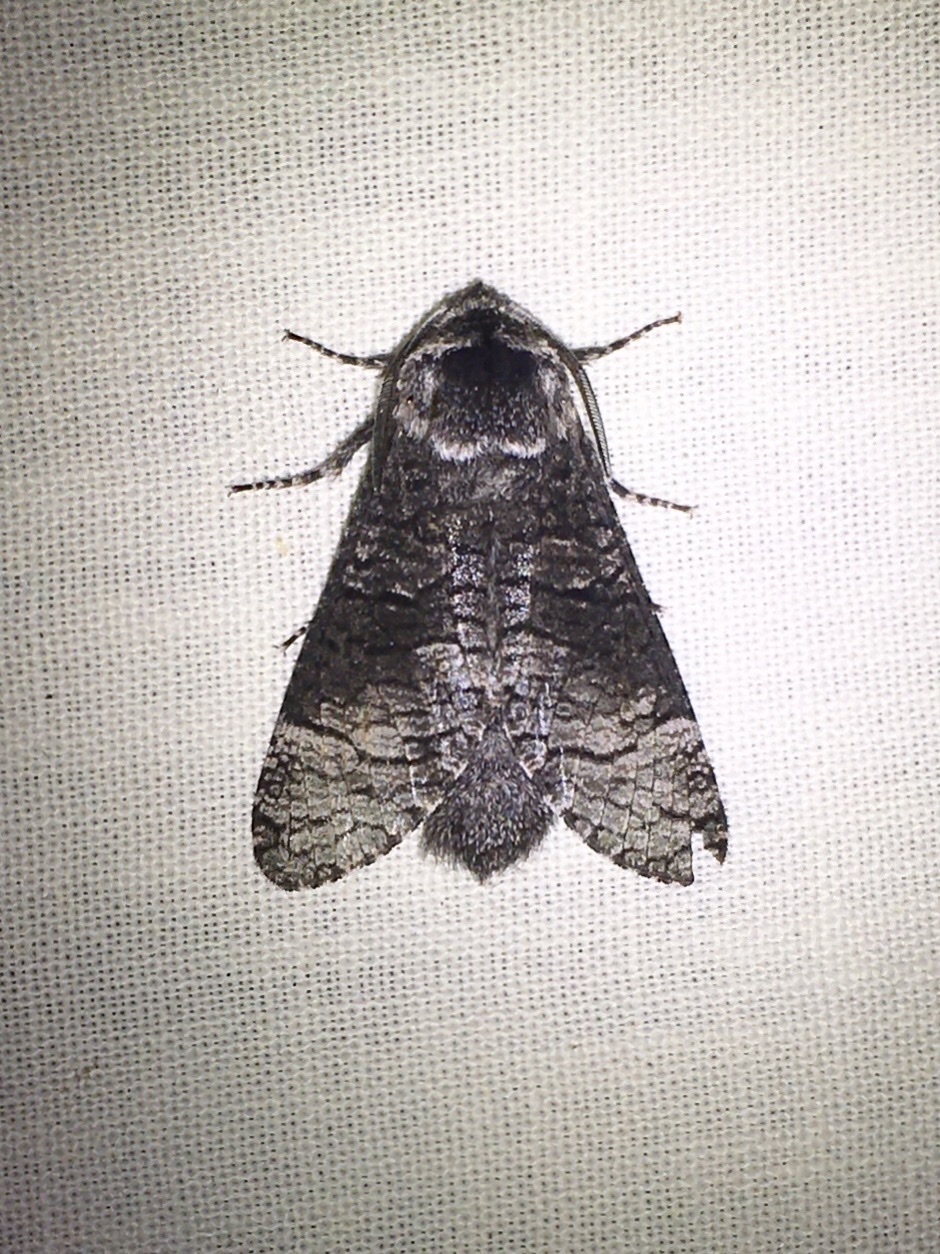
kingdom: Animalia
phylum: Arthropoda
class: Insecta
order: Lepidoptera
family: Cossidae
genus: Acossus
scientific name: Acossus centerensis
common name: Poplar carpenterworm moth
